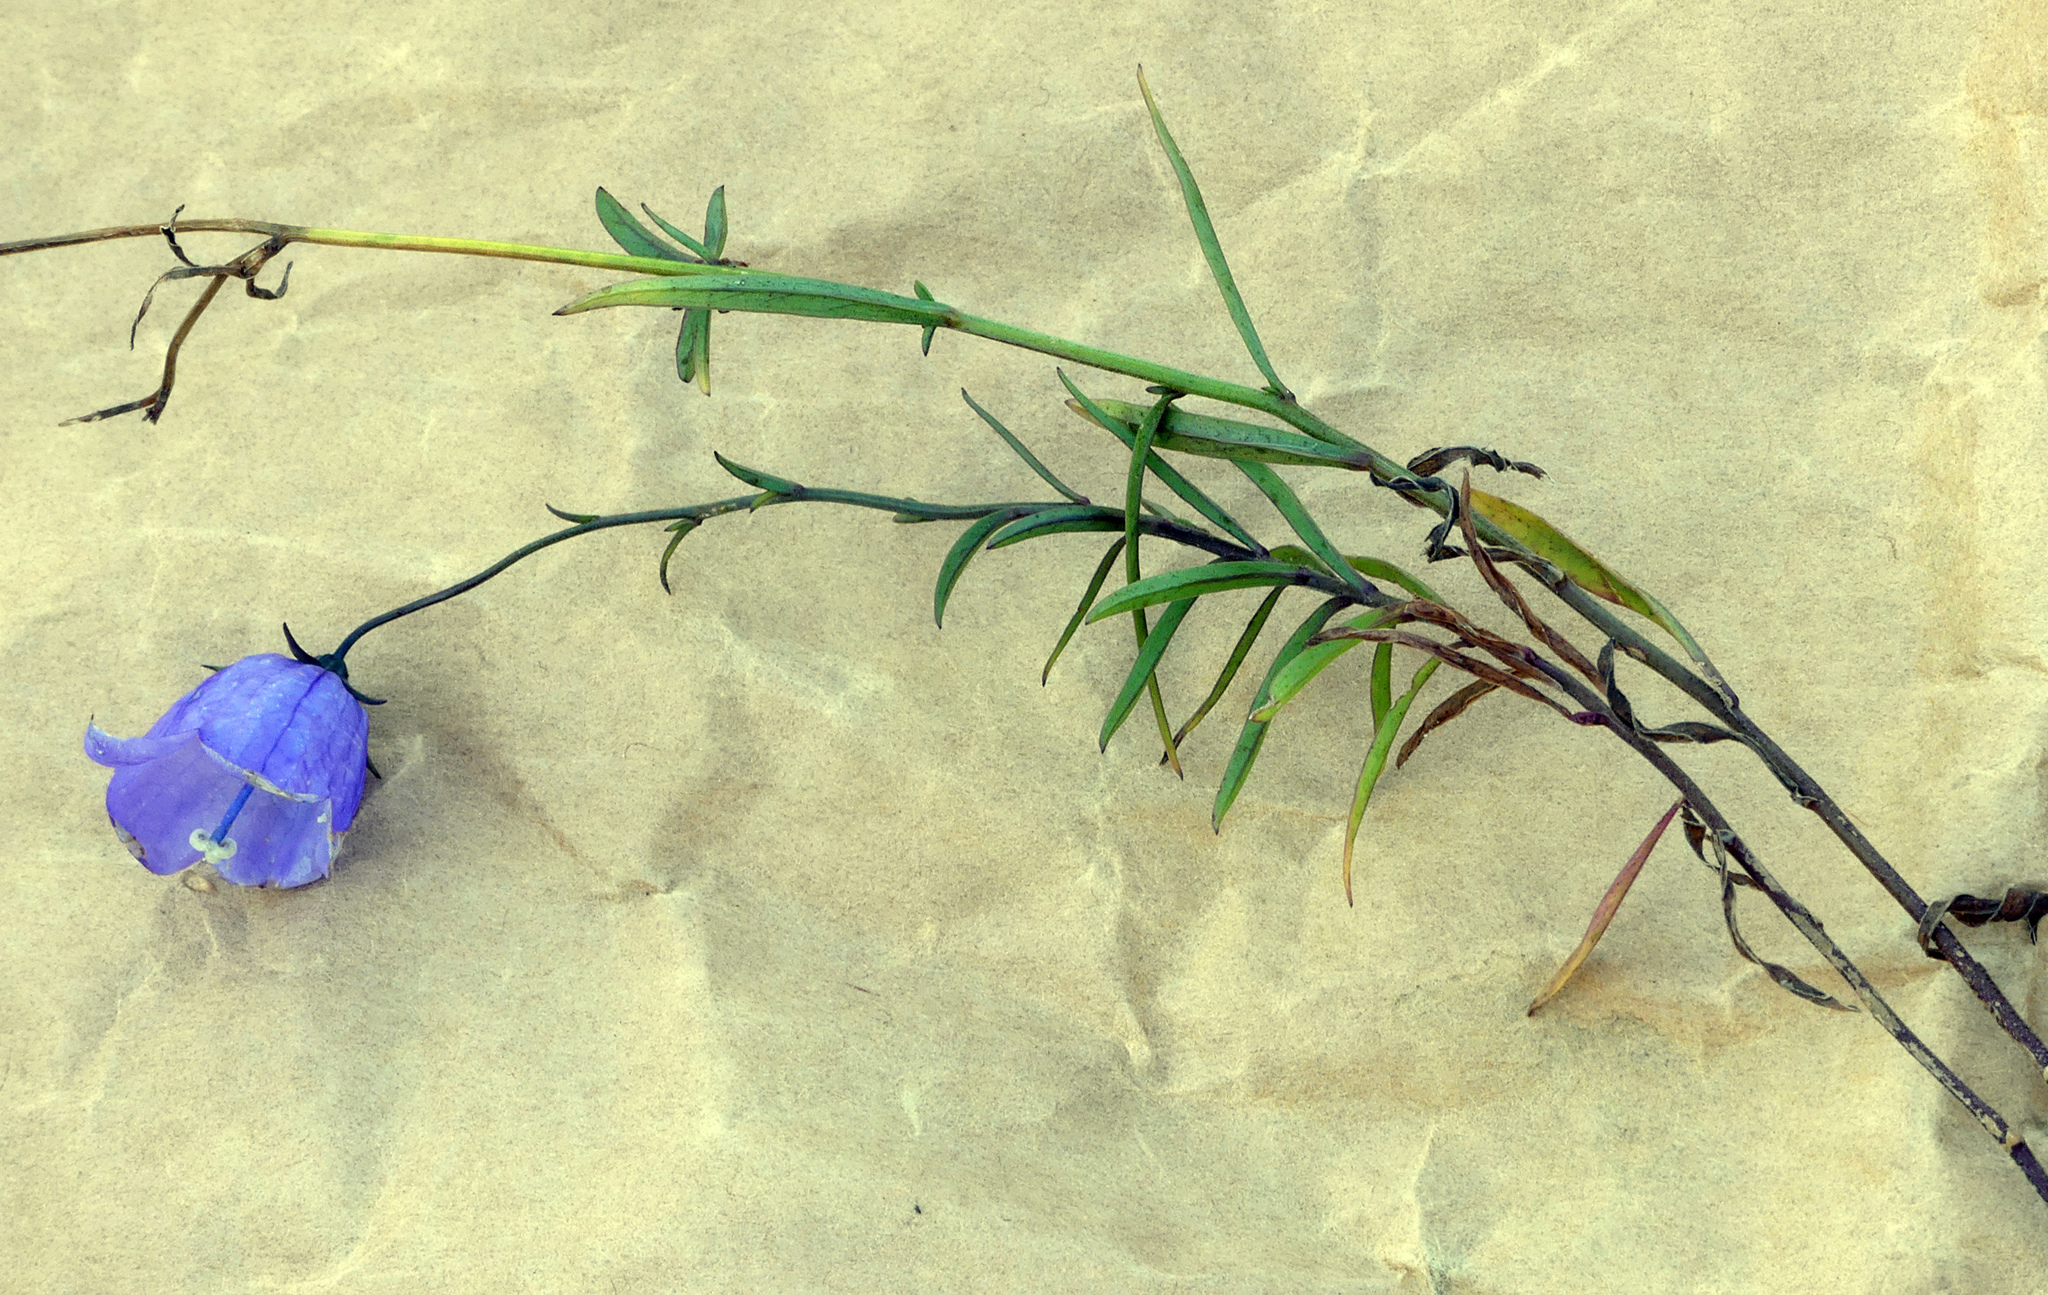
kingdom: Plantae
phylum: Tracheophyta
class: Magnoliopsida
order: Asterales
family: Campanulaceae
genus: Campanula
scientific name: Campanula rotundifolia
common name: Harebell
